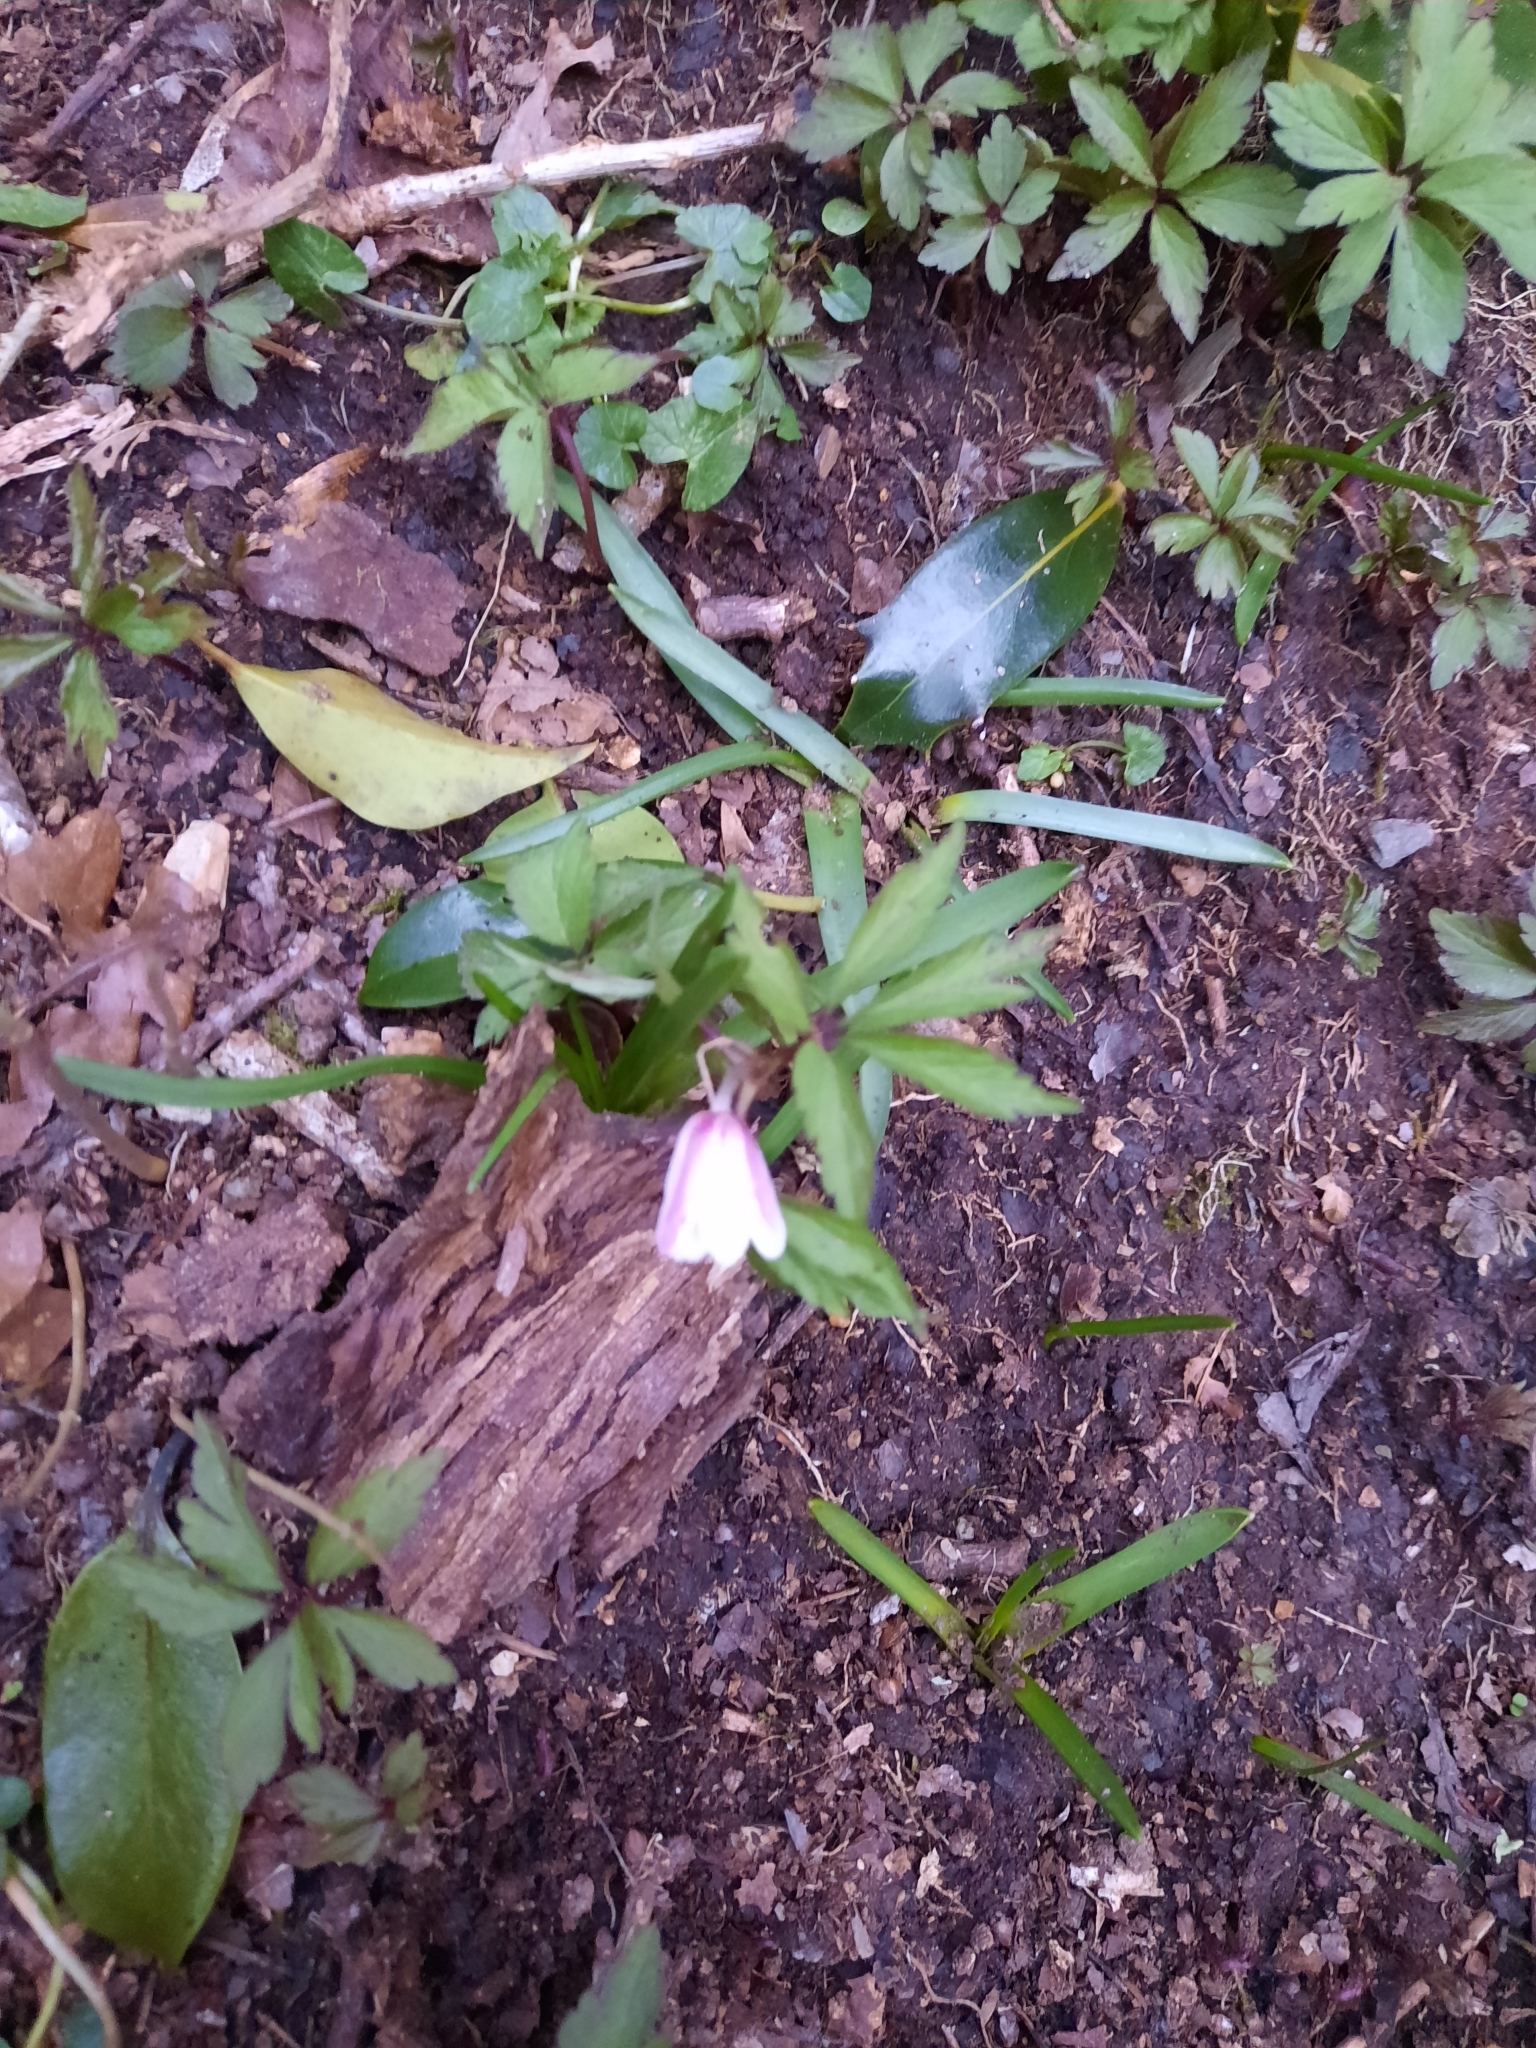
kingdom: Plantae
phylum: Tracheophyta
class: Magnoliopsida
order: Ranunculales
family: Ranunculaceae
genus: Anemone
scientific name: Anemone nemorosa
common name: Wood anemone
